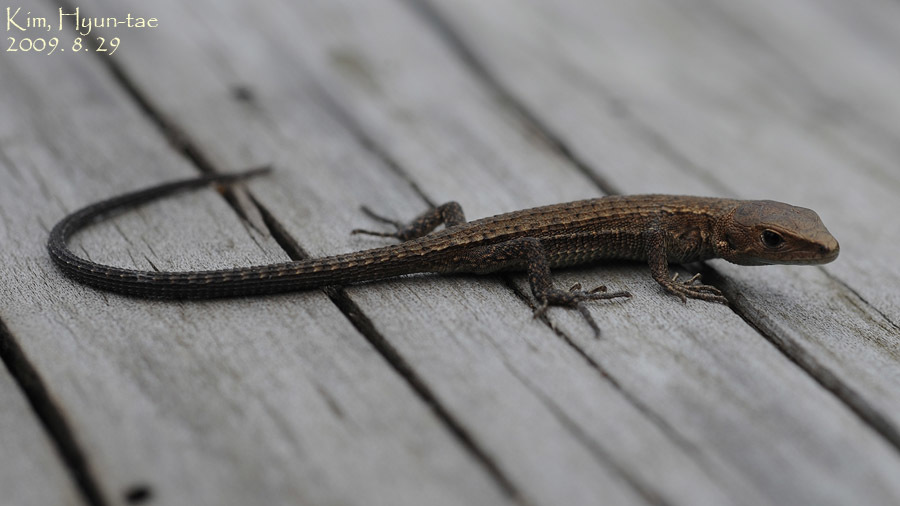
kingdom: Animalia
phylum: Chordata
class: Squamata
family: Lacertidae
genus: Takydromus
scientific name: Takydromus amurensis
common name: Amur grass lizard
